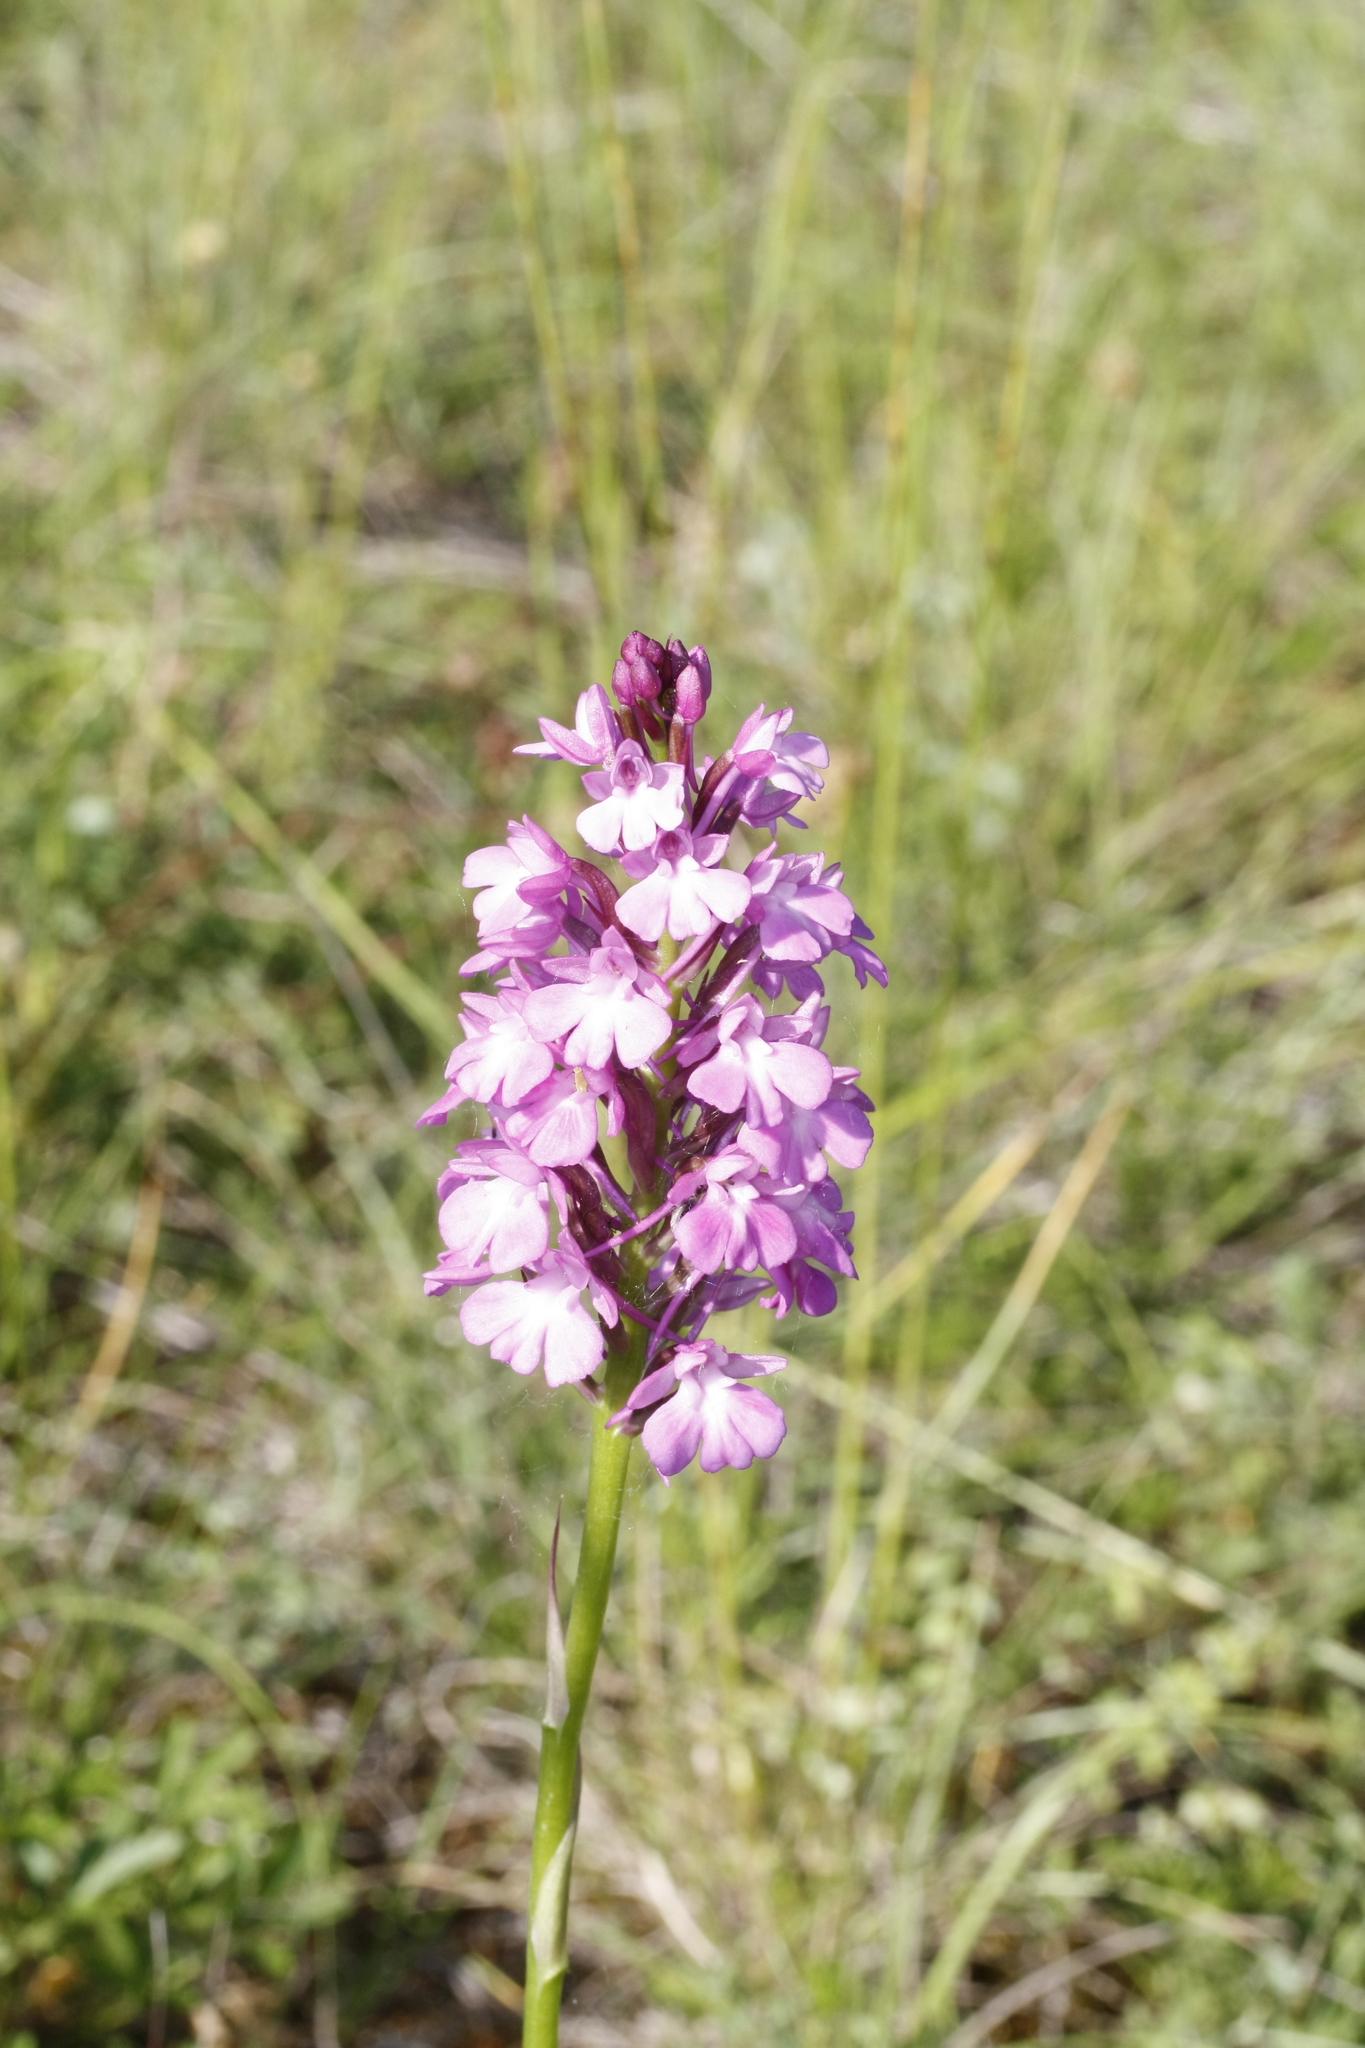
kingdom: Plantae
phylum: Tracheophyta
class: Liliopsida
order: Asparagales
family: Orchidaceae
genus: Anacamptis
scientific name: Anacamptis pyramidalis
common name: Pyramidal orchid
